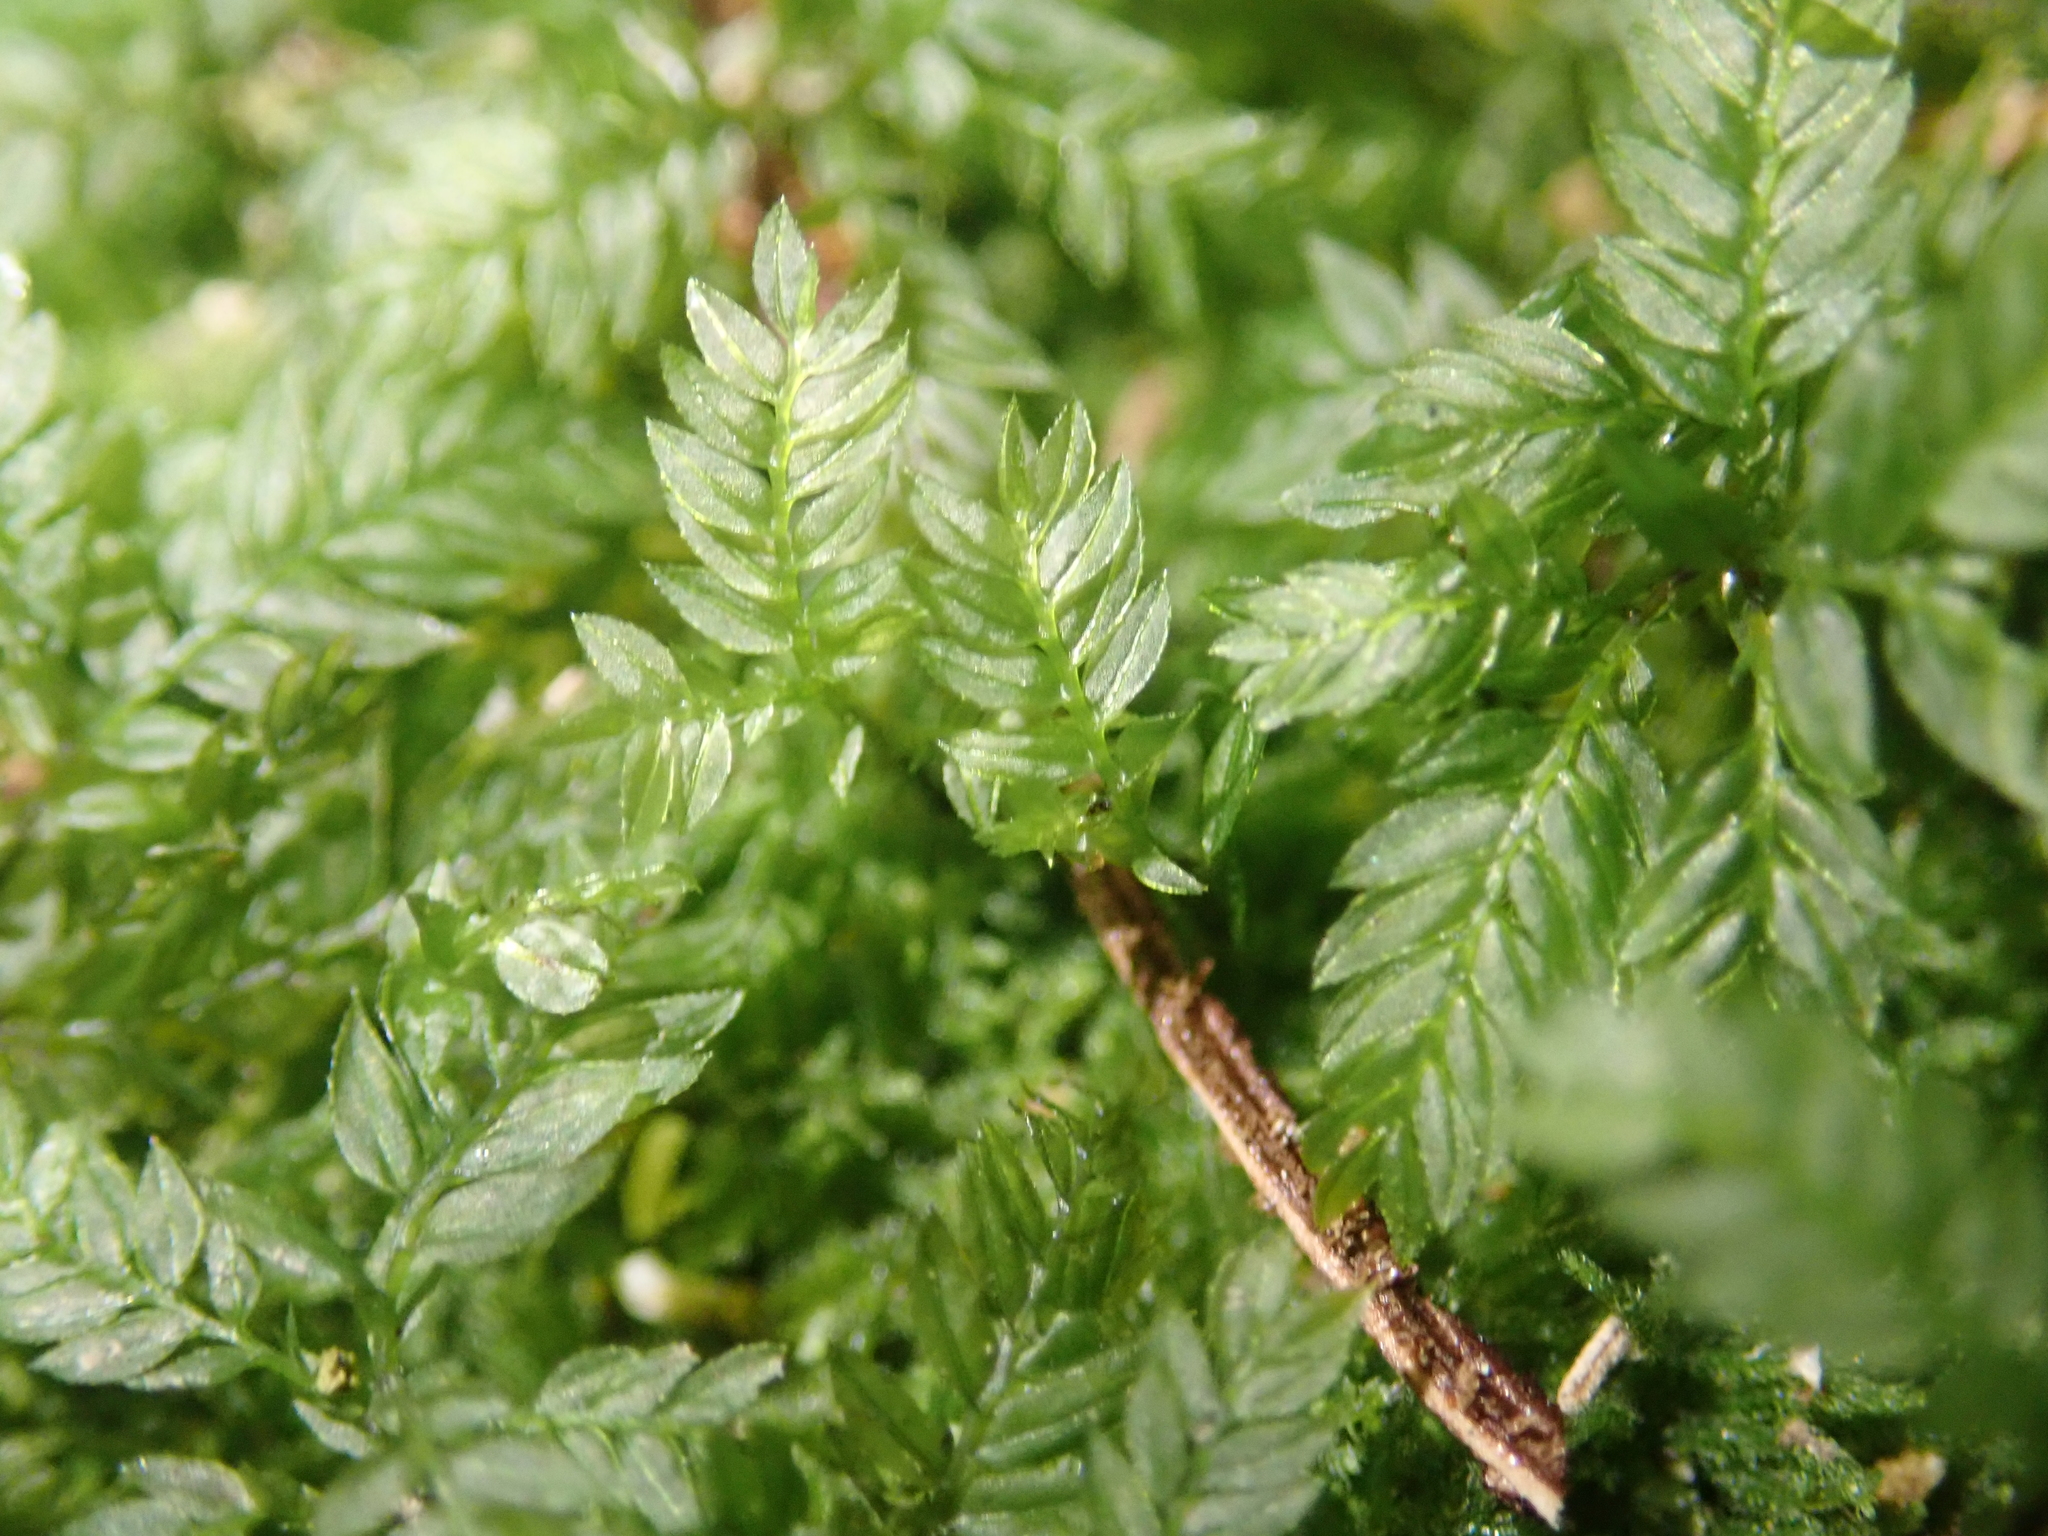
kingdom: Plantae
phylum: Bryophyta
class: Bryopsida
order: Aulacomniales
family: Aulacomniaceae
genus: Hymenodontopsis
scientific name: Hymenodontopsis bifaria
